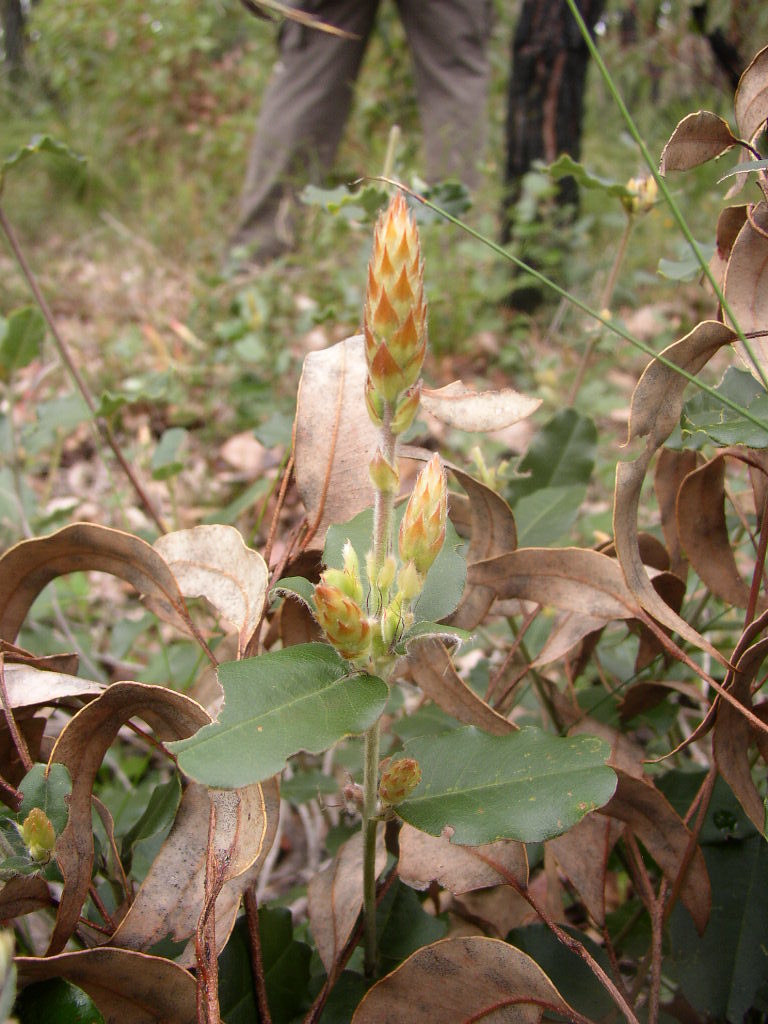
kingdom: Plantae
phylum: Tracheophyta
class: Magnoliopsida
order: Fabales
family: Fabaceae
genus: Gastrolobium
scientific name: Gastrolobium villosum
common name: Crinkle-leaf poison
